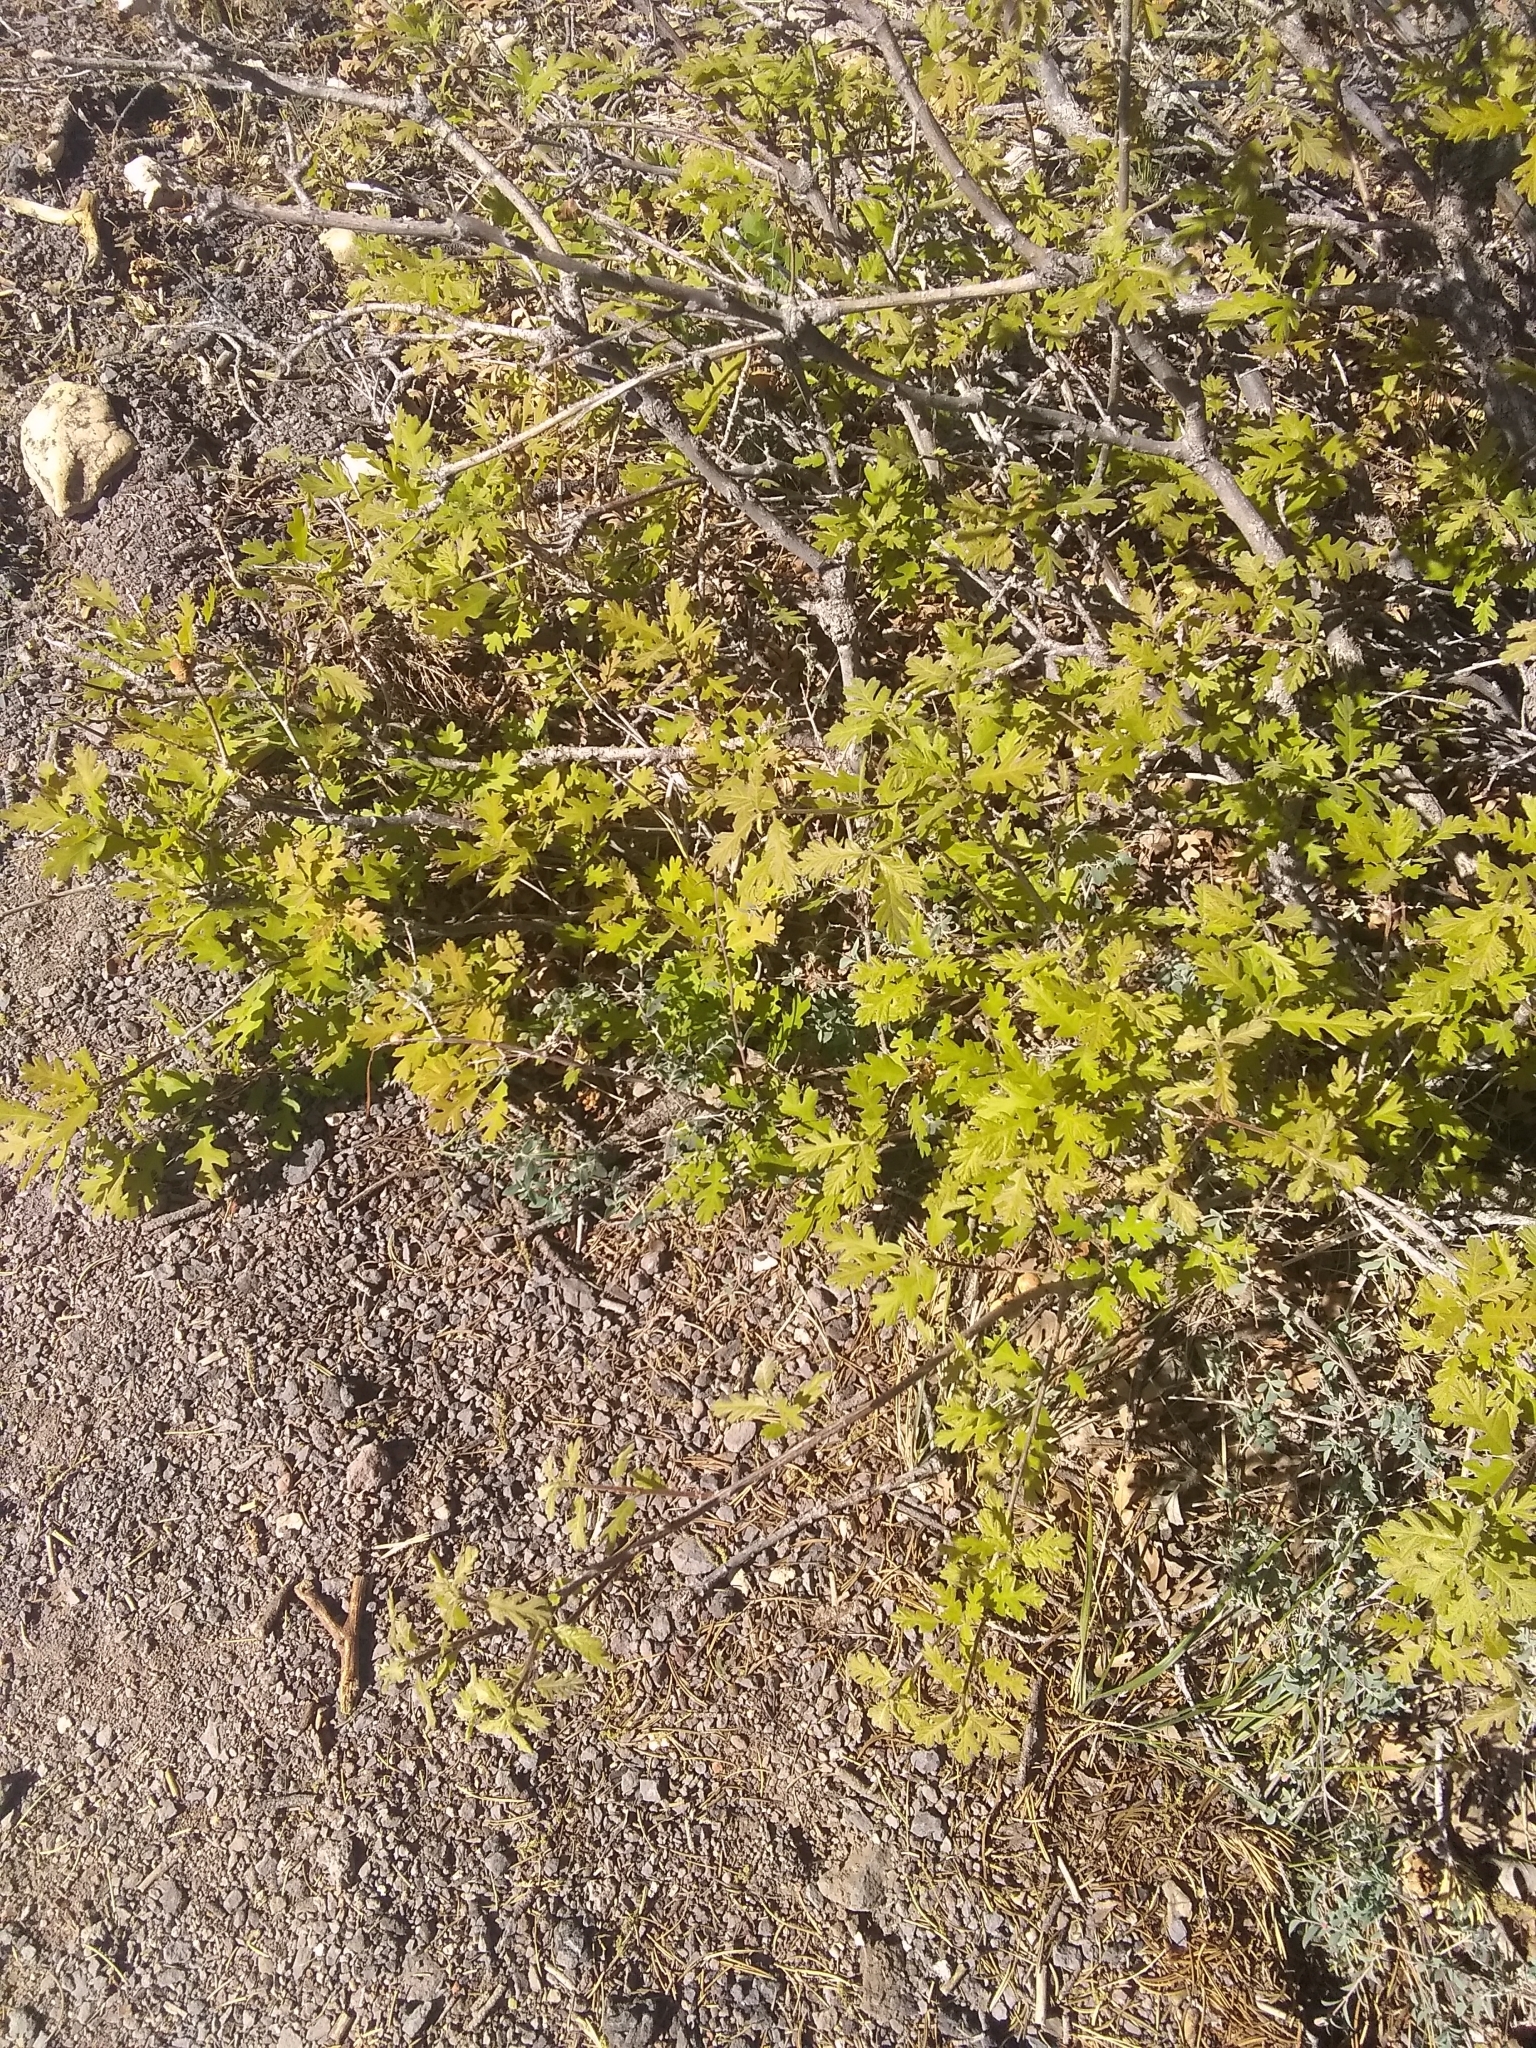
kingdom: Plantae
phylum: Tracheophyta
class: Magnoliopsida
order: Fagales
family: Fagaceae
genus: Quercus
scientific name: Quercus gambelii
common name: Gambel oak
